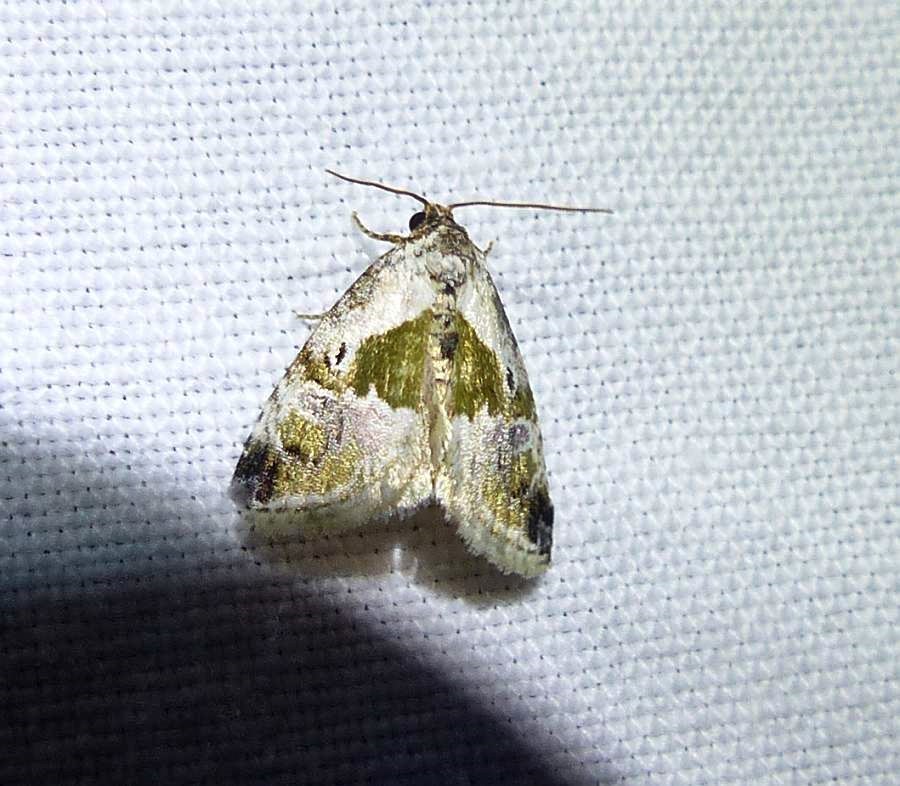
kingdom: Animalia
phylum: Arthropoda
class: Insecta
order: Lepidoptera
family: Noctuidae
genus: Maliattha
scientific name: Maliattha synochitis
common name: Black-dotted glyph
